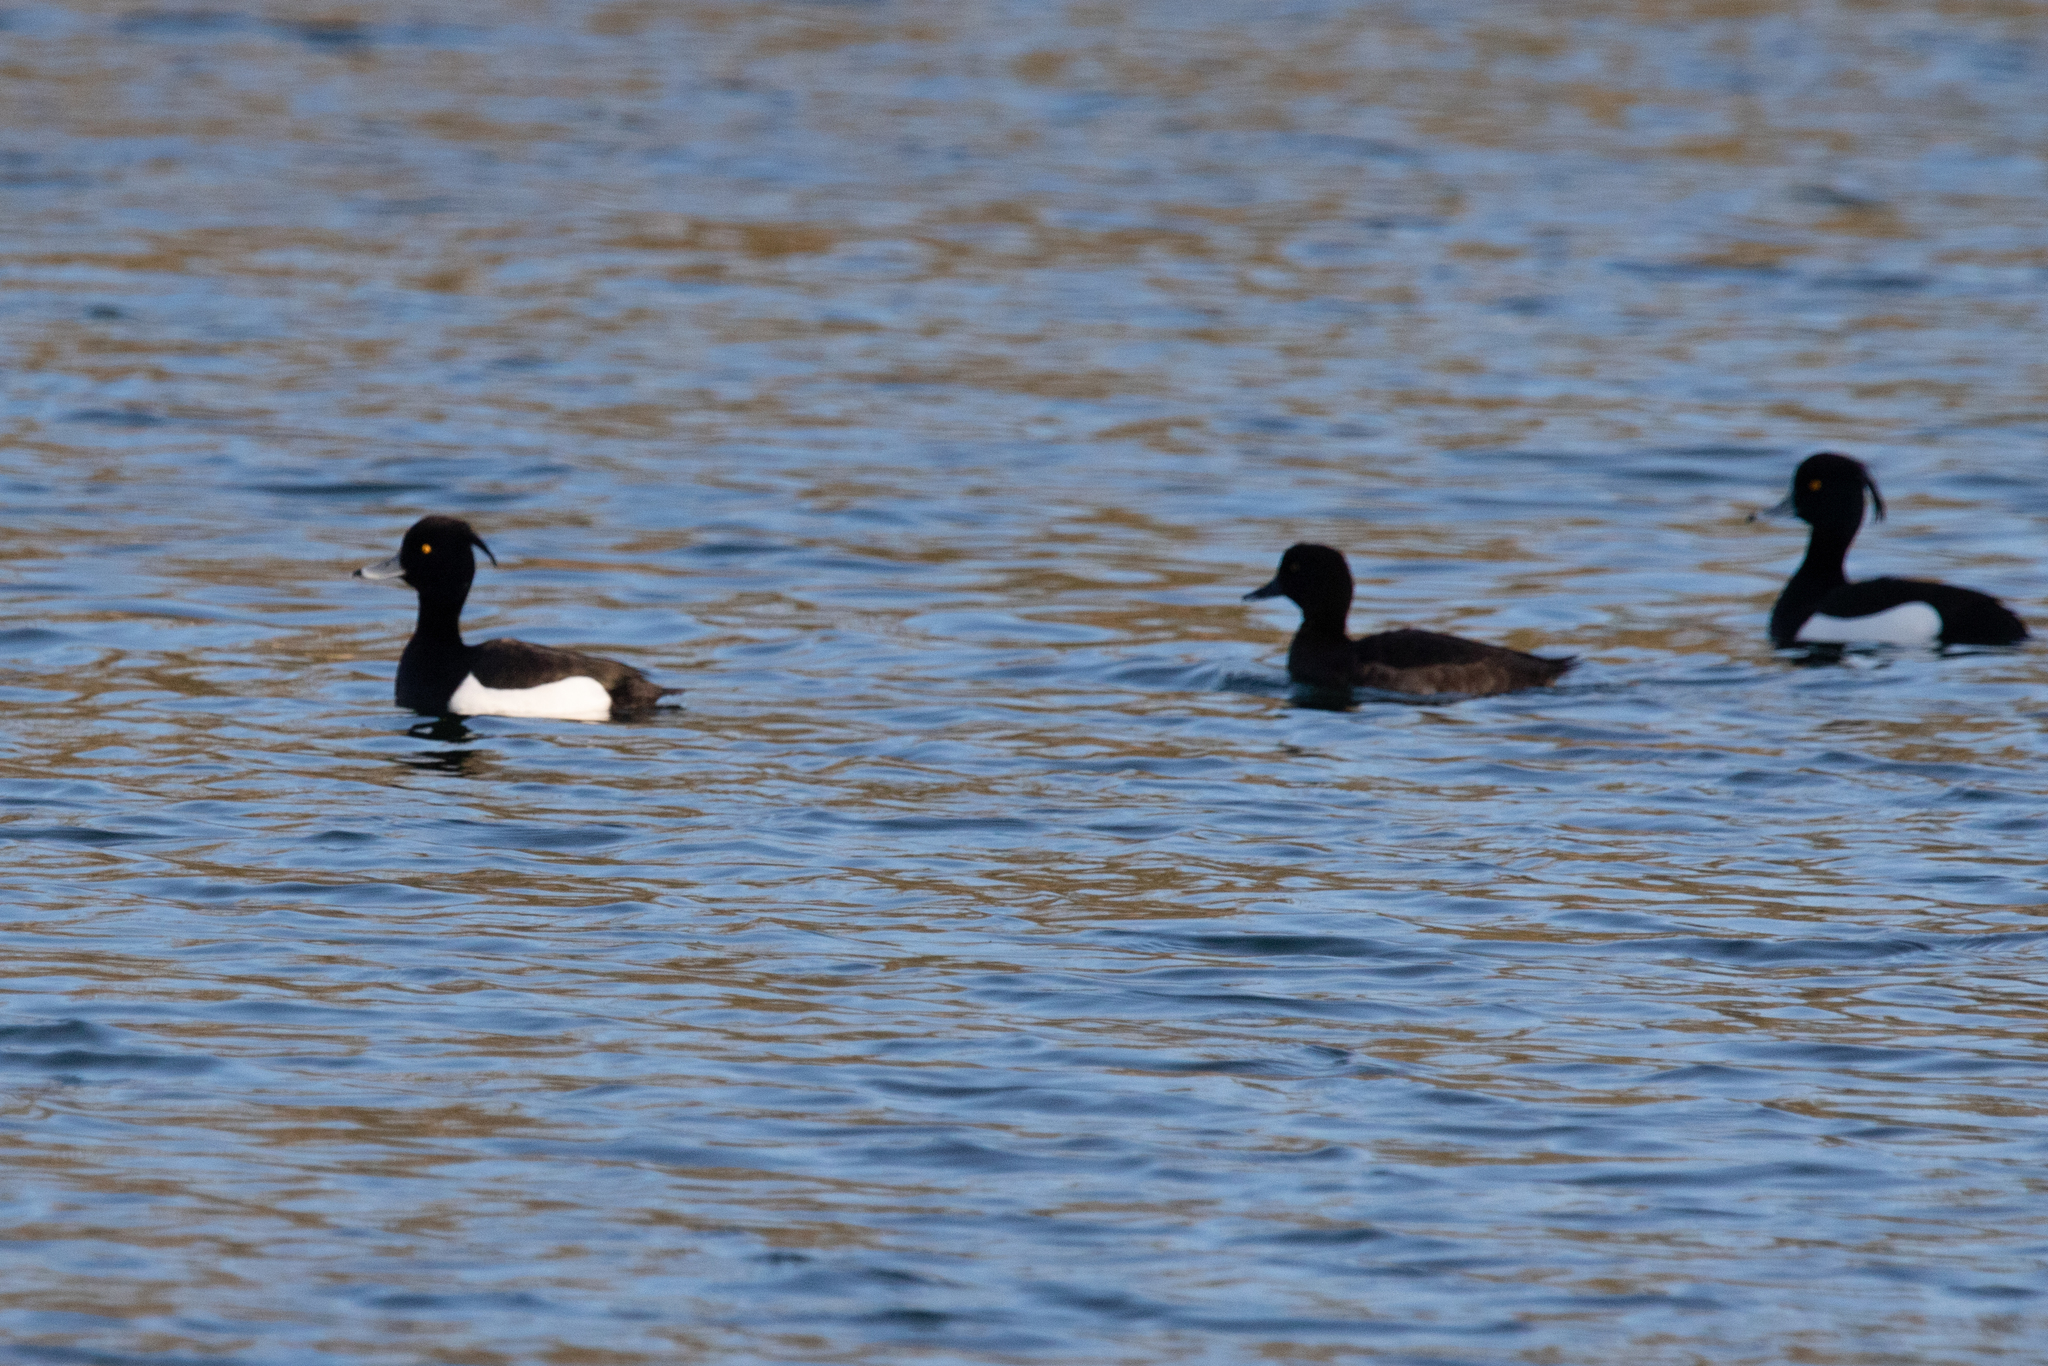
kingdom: Animalia
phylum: Chordata
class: Aves
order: Anseriformes
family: Anatidae
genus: Aythya
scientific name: Aythya fuligula
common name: Tufted duck
